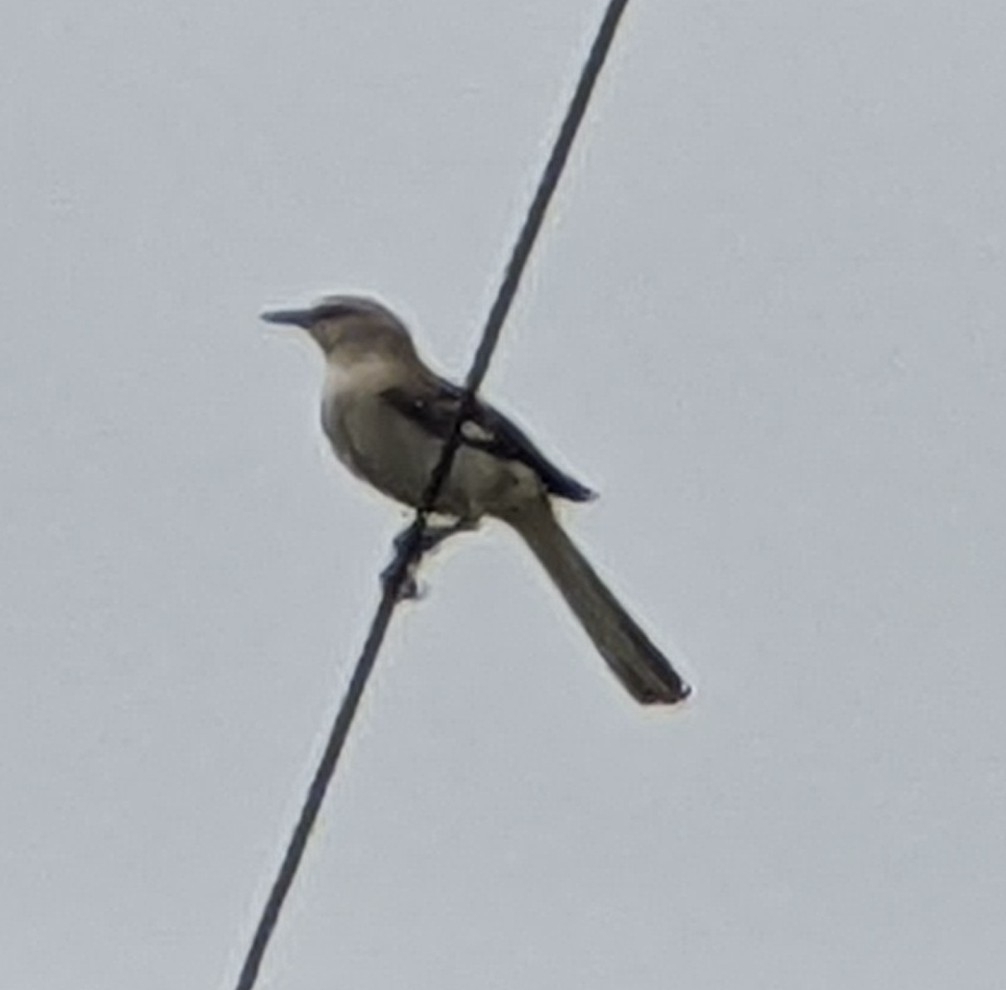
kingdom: Animalia
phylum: Chordata
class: Aves
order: Passeriformes
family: Mimidae
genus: Mimus
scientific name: Mimus polyglottos
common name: Northern mockingbird
